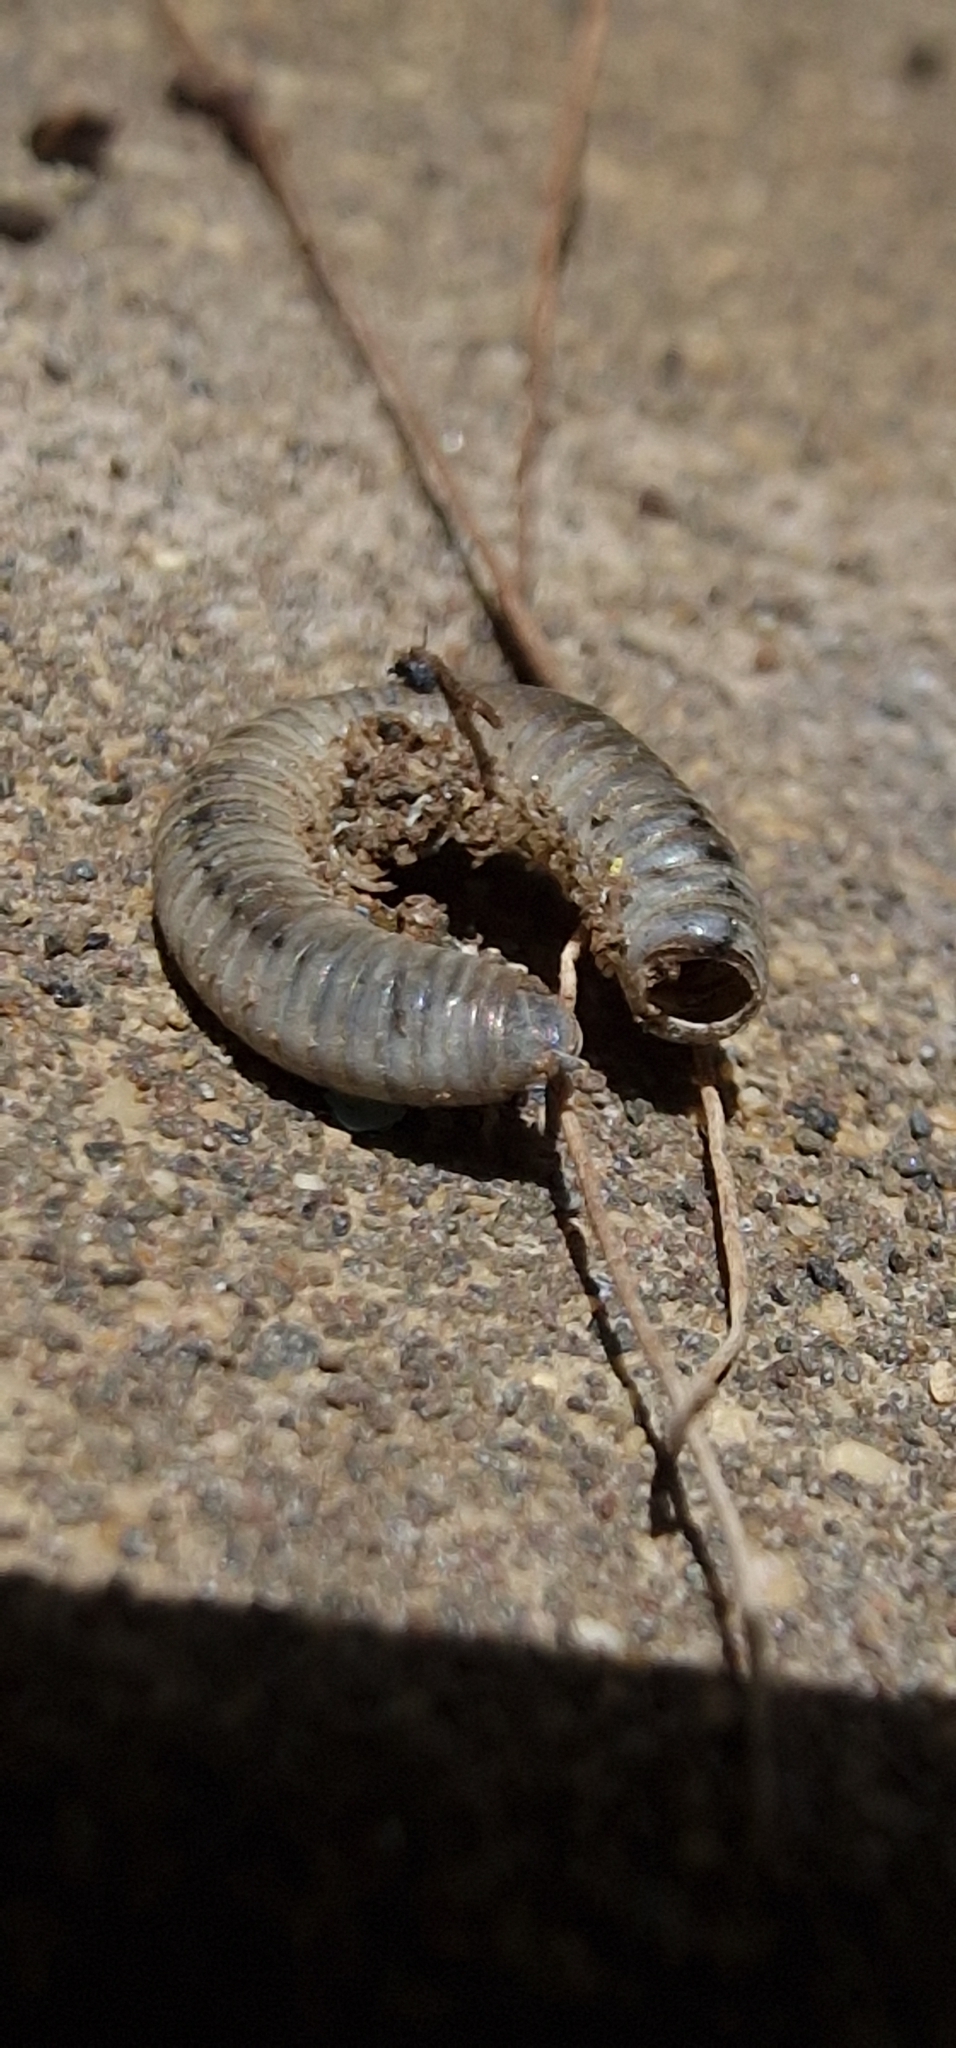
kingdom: Animalia
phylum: Arthropoda
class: Diplopoda
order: Julida
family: Julidae
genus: Ommatoiulus
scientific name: Ommatoiulus moreleti
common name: Portuguese millipede
